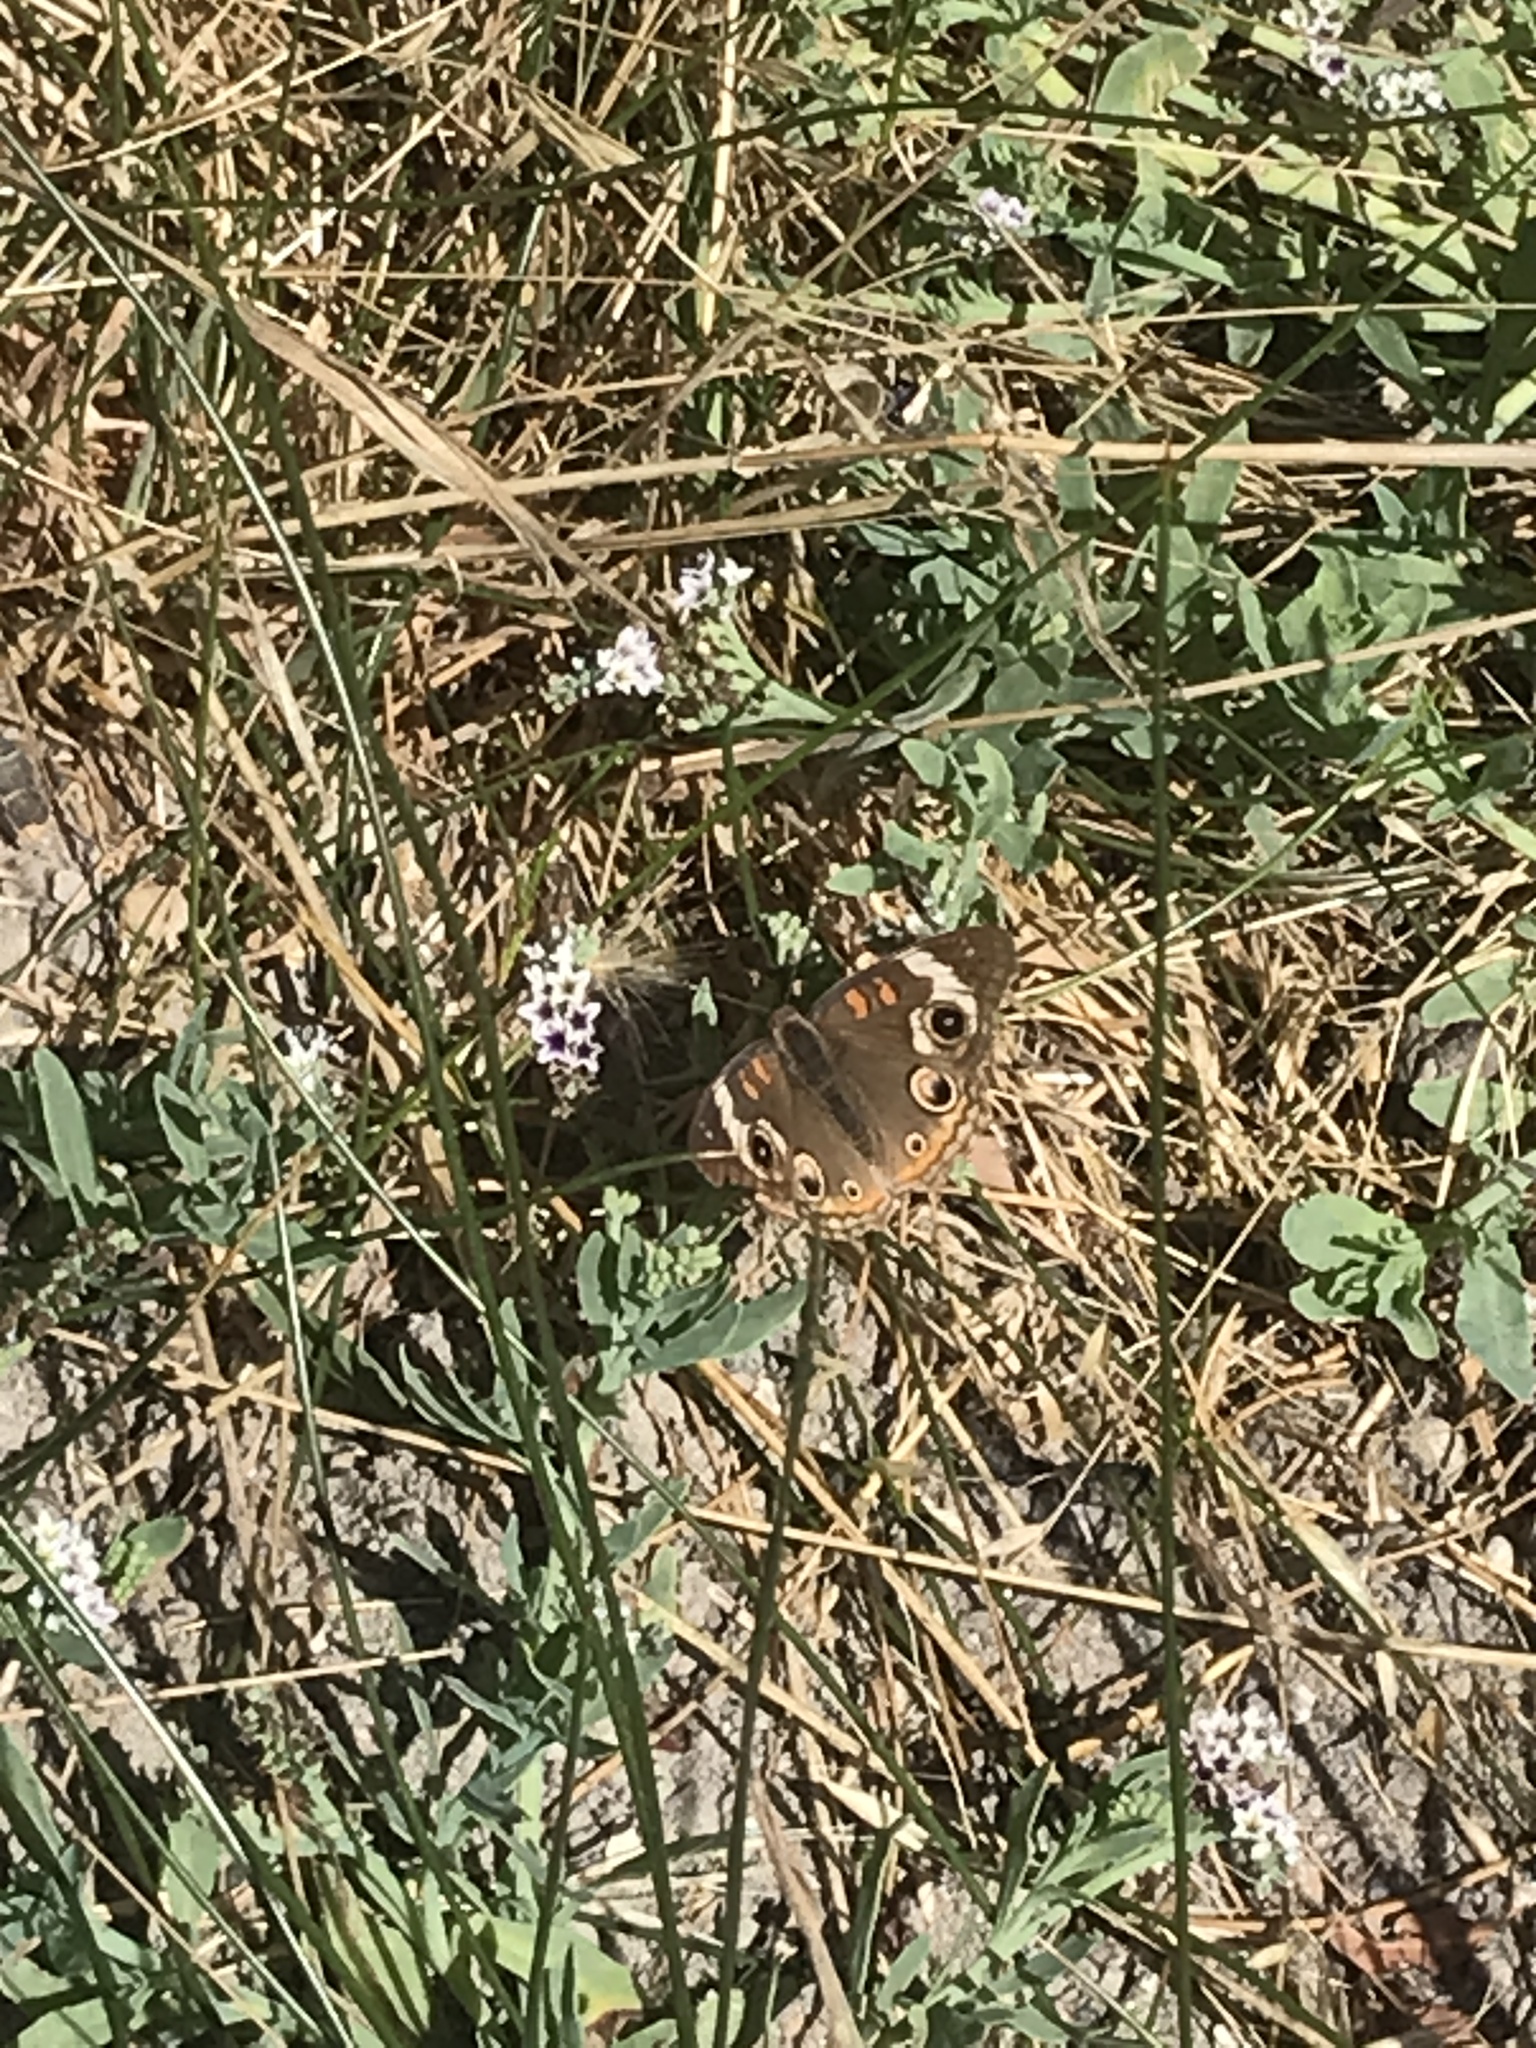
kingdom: Animalia
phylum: Arthropoda
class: Insecta
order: Lepidoptera
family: Nymphalidae
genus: Junonia
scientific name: Junonia grisea
